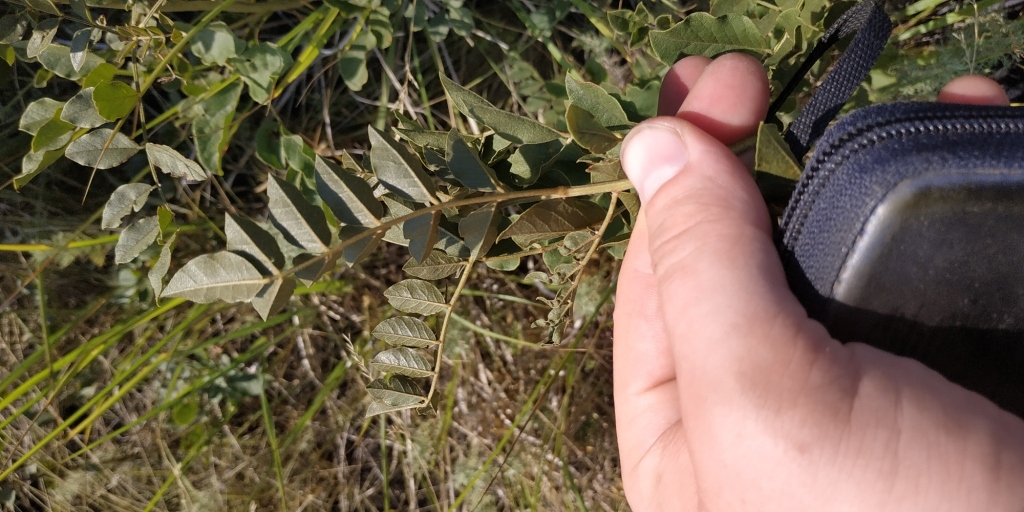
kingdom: Plantae
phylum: Tracheophyta
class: Magnoliopsida
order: Fabales
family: Fabaceae
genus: Glycyrrhiza
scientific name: Glycyrrhiza uralensis
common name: Chinese licorice
